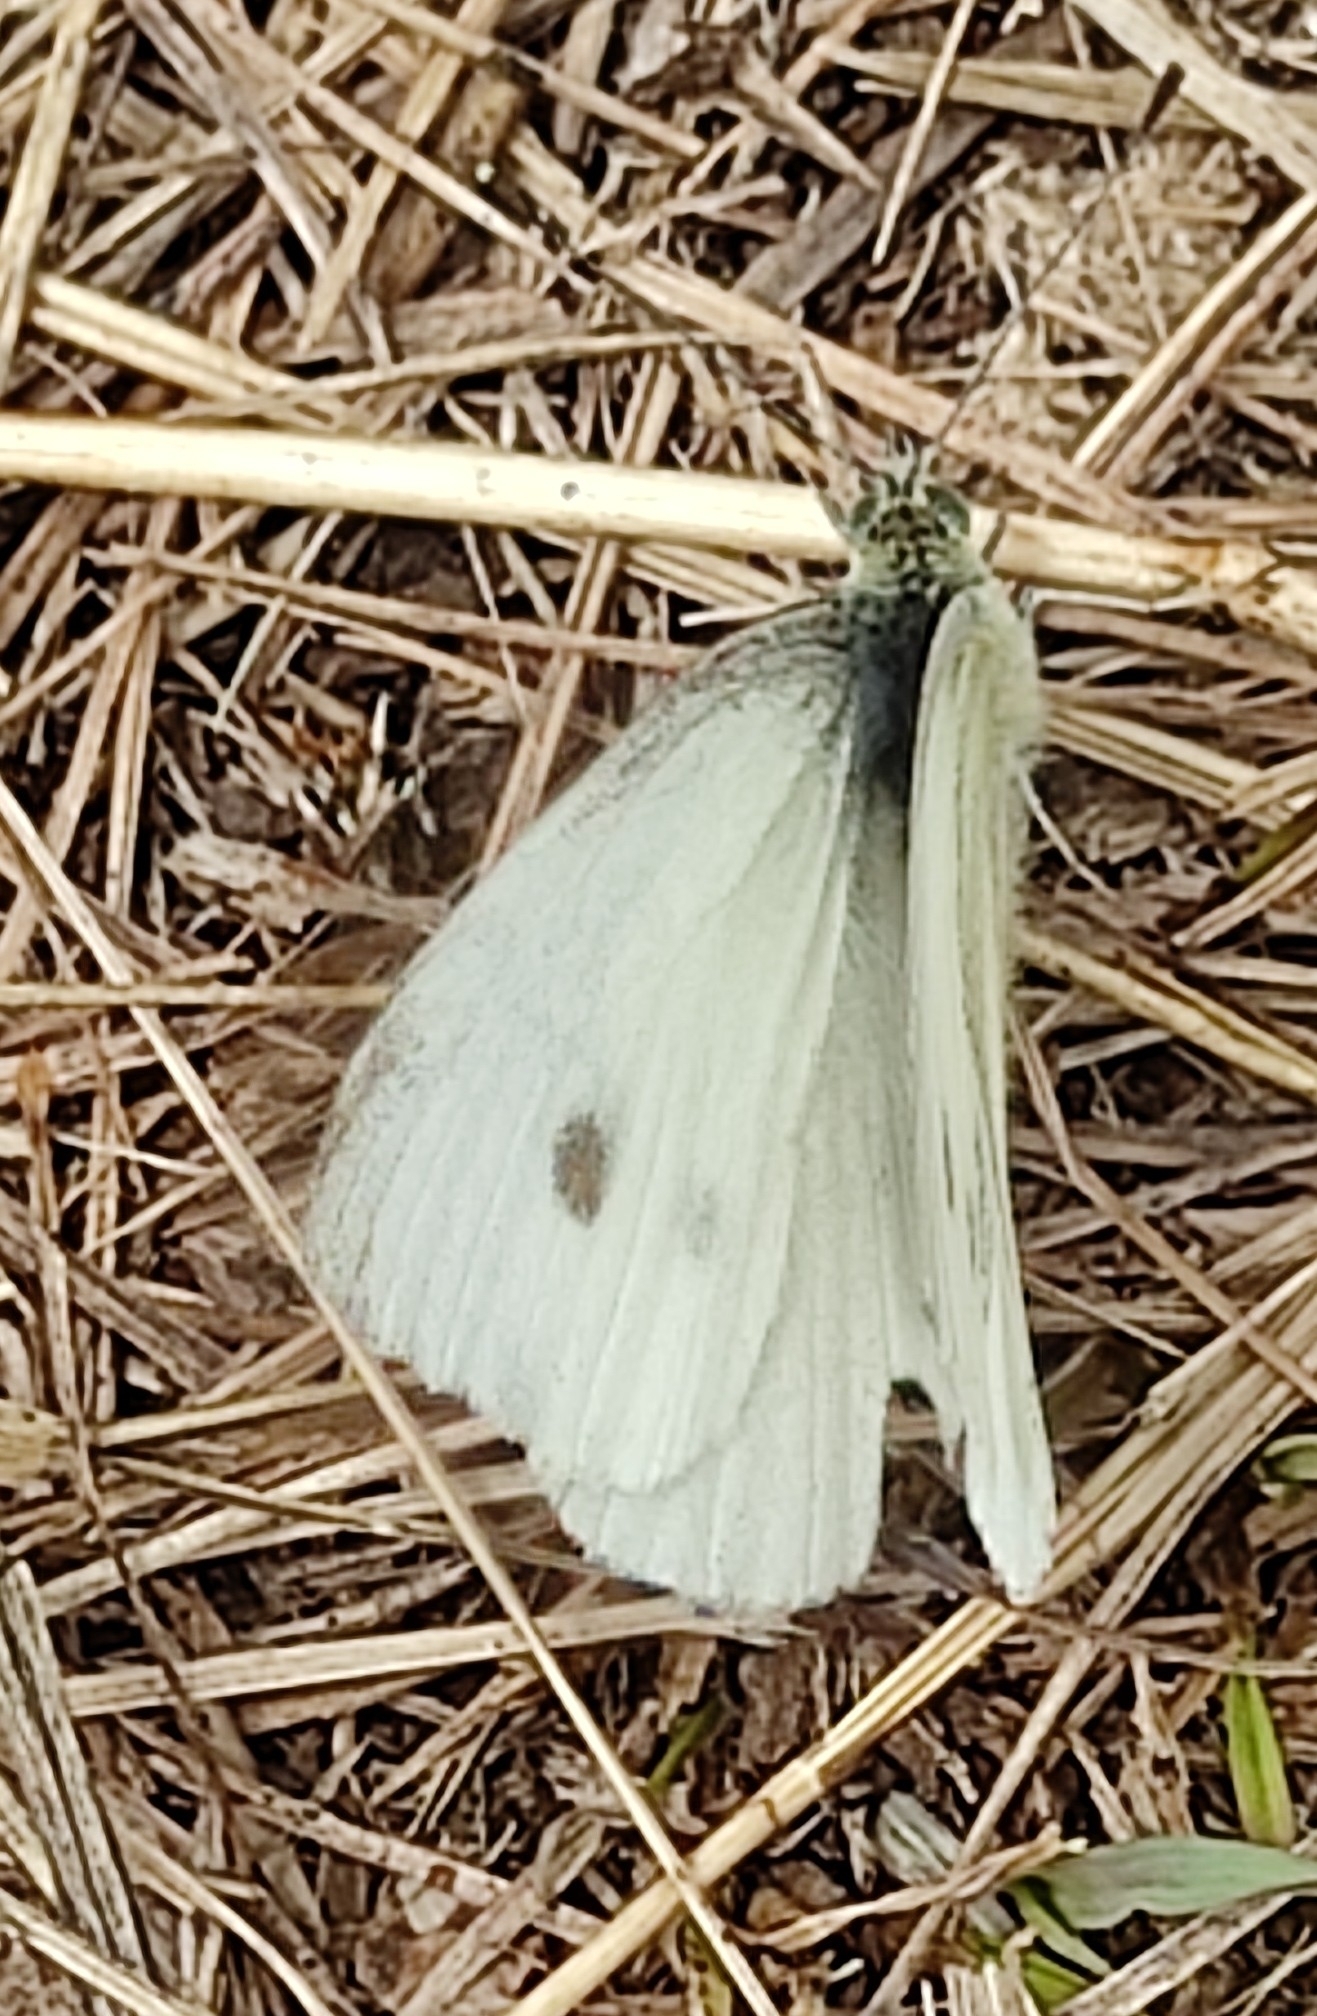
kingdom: Animalia
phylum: Arthropoda
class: Insecta
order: Lepidoptera
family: Pieridae
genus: Pieris
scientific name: Pieris rapae
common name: Small white
